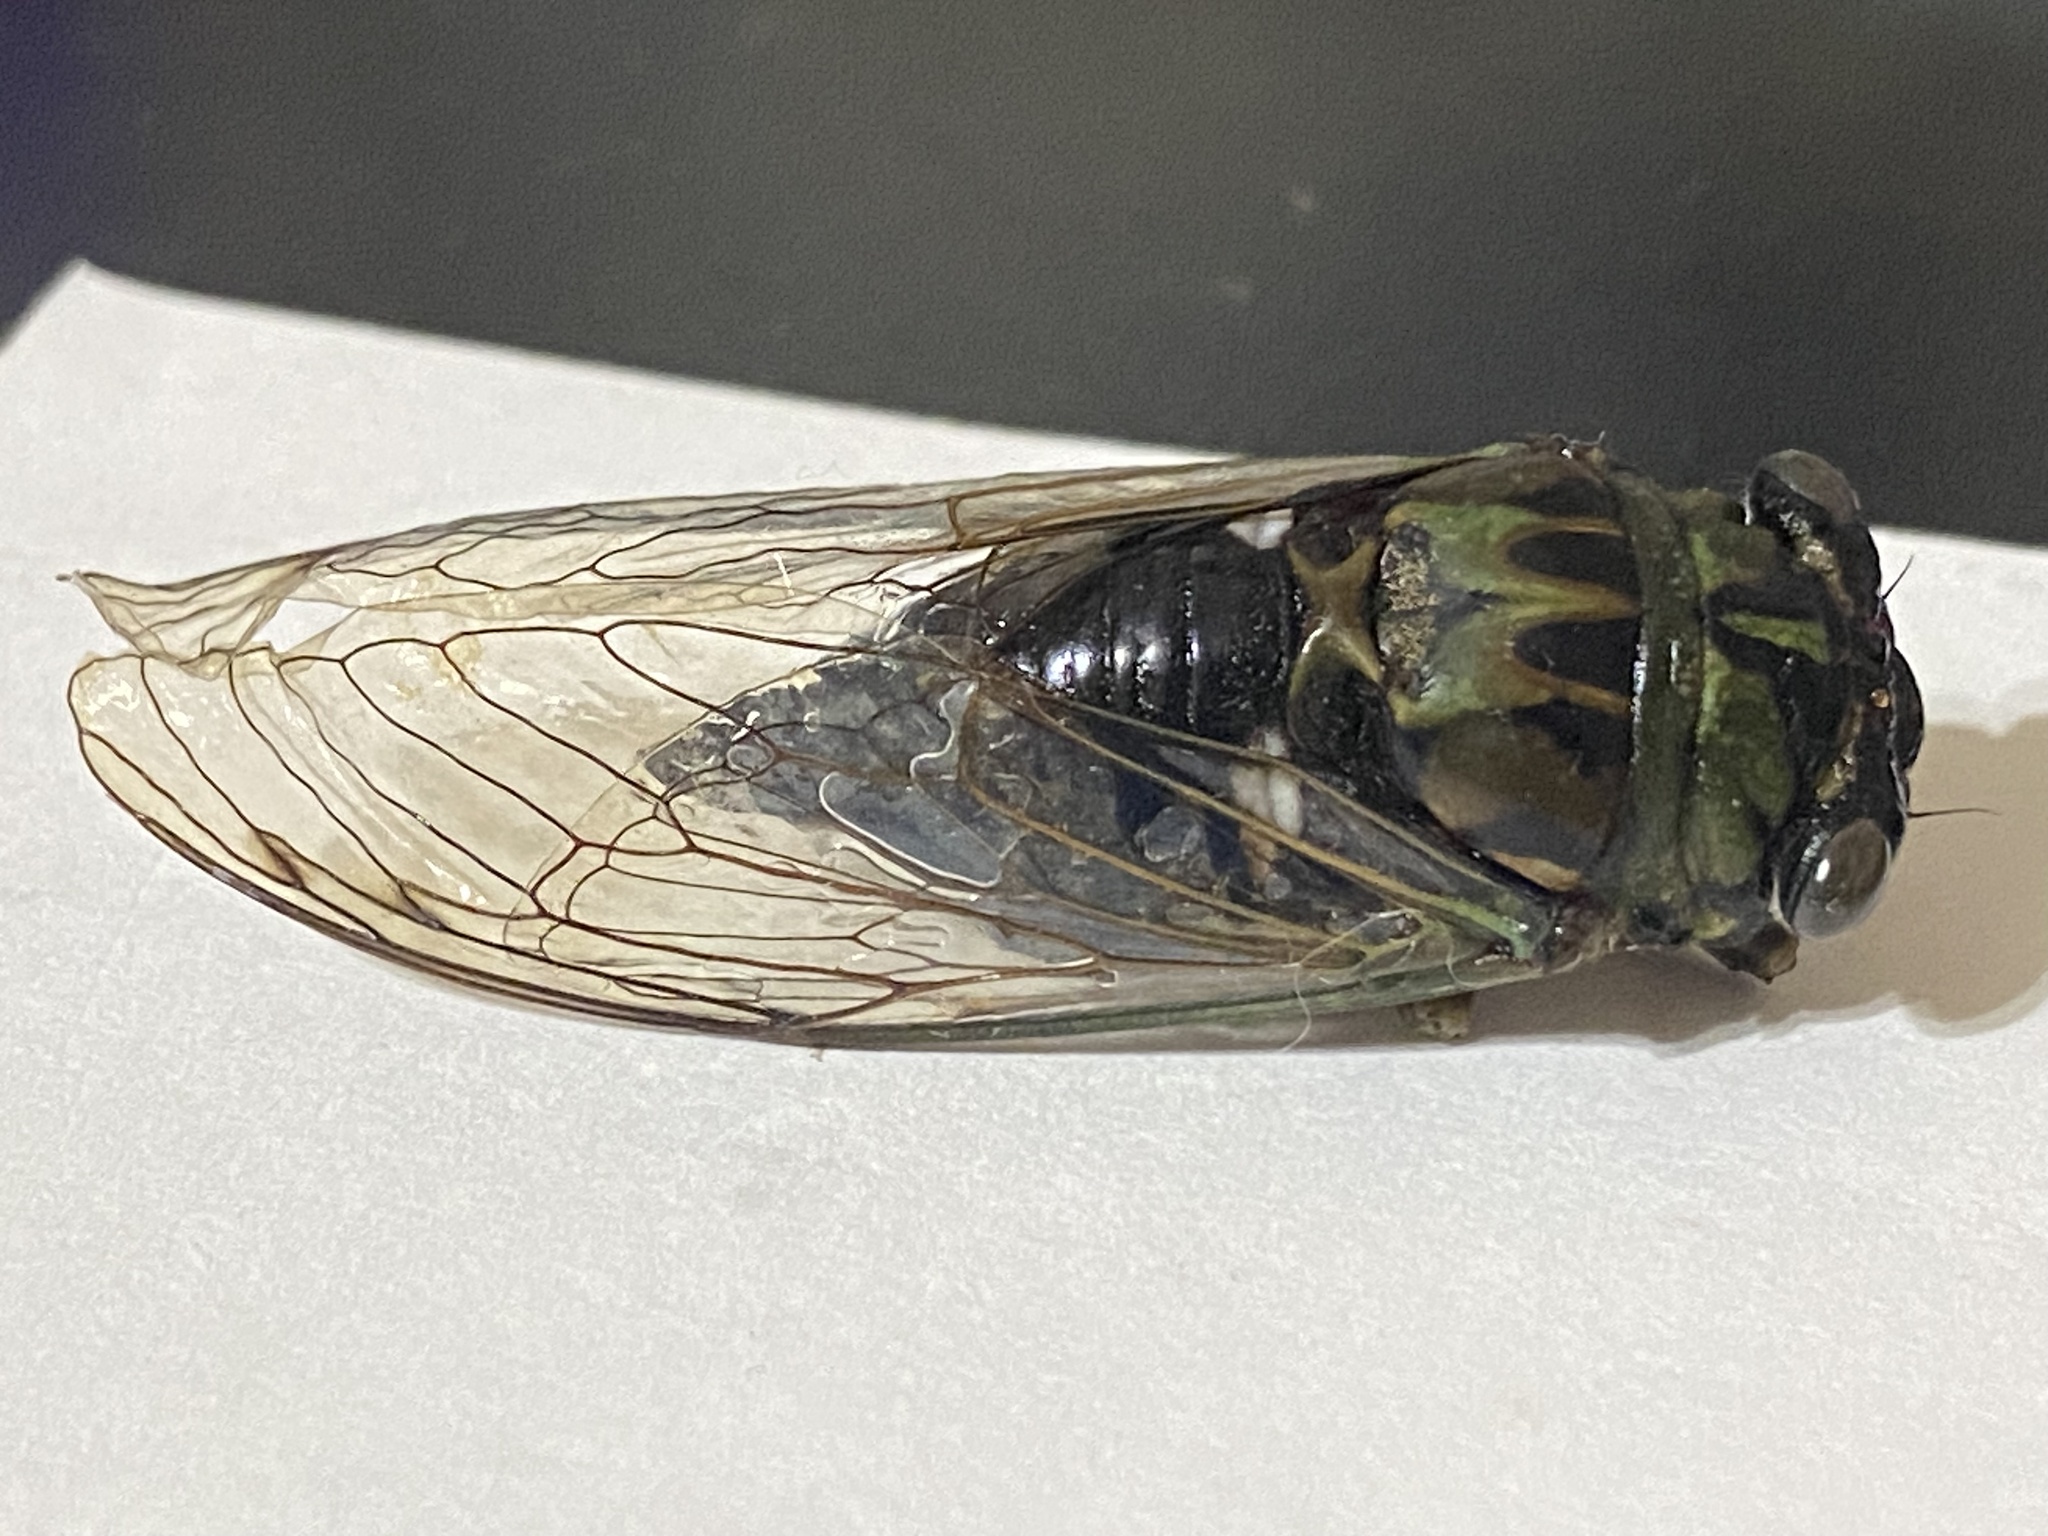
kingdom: Animalia
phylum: Arthropoda
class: Insecta
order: Hemiptera
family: Cicadidae
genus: Neotibicen
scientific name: Neotibicen pruinosus
